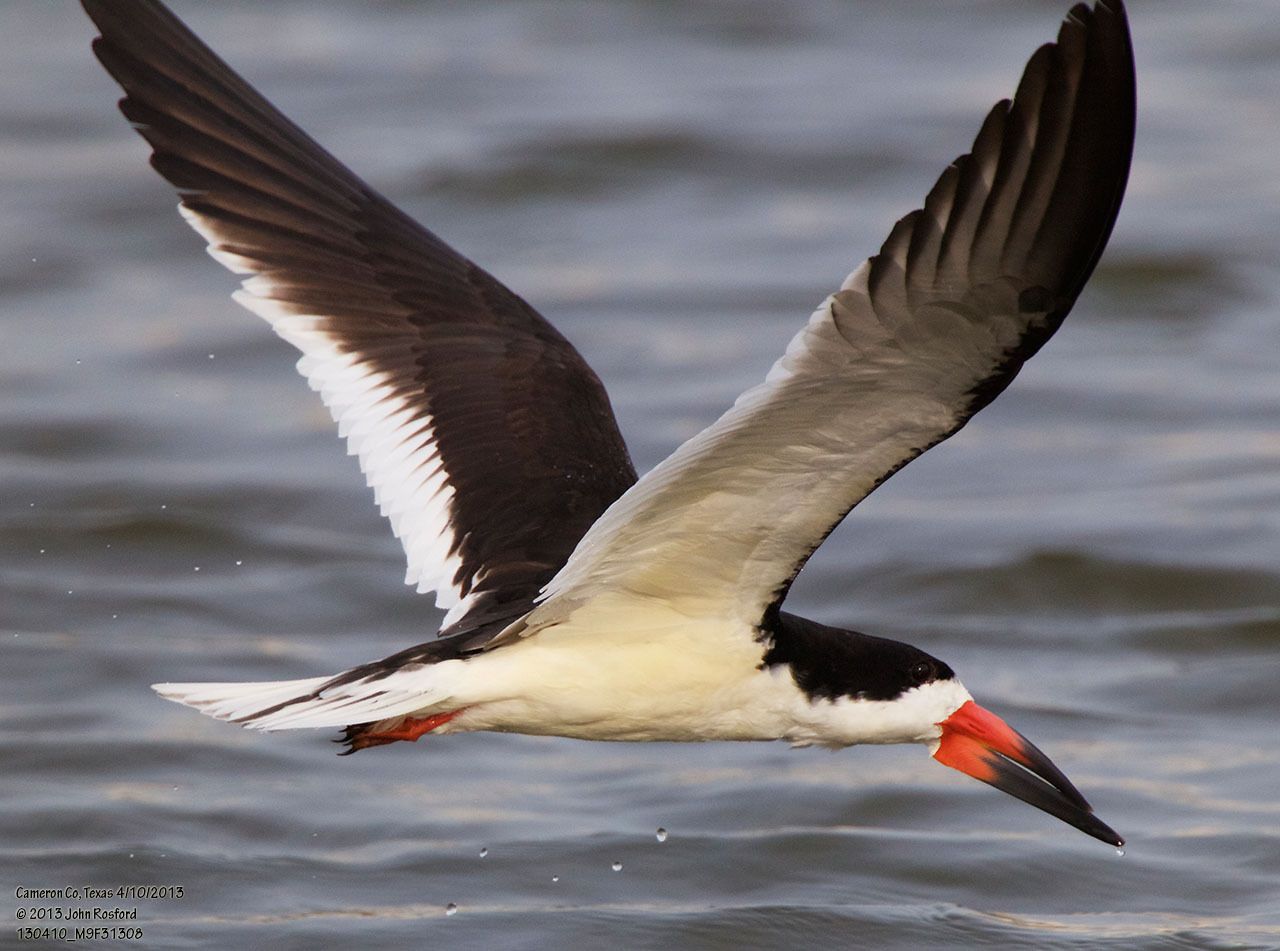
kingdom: Animalia
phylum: Chordata
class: Aves
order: Charadriiformes
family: Laridae
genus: Rynchops
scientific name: Rynchops niger
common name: Black skimmer
